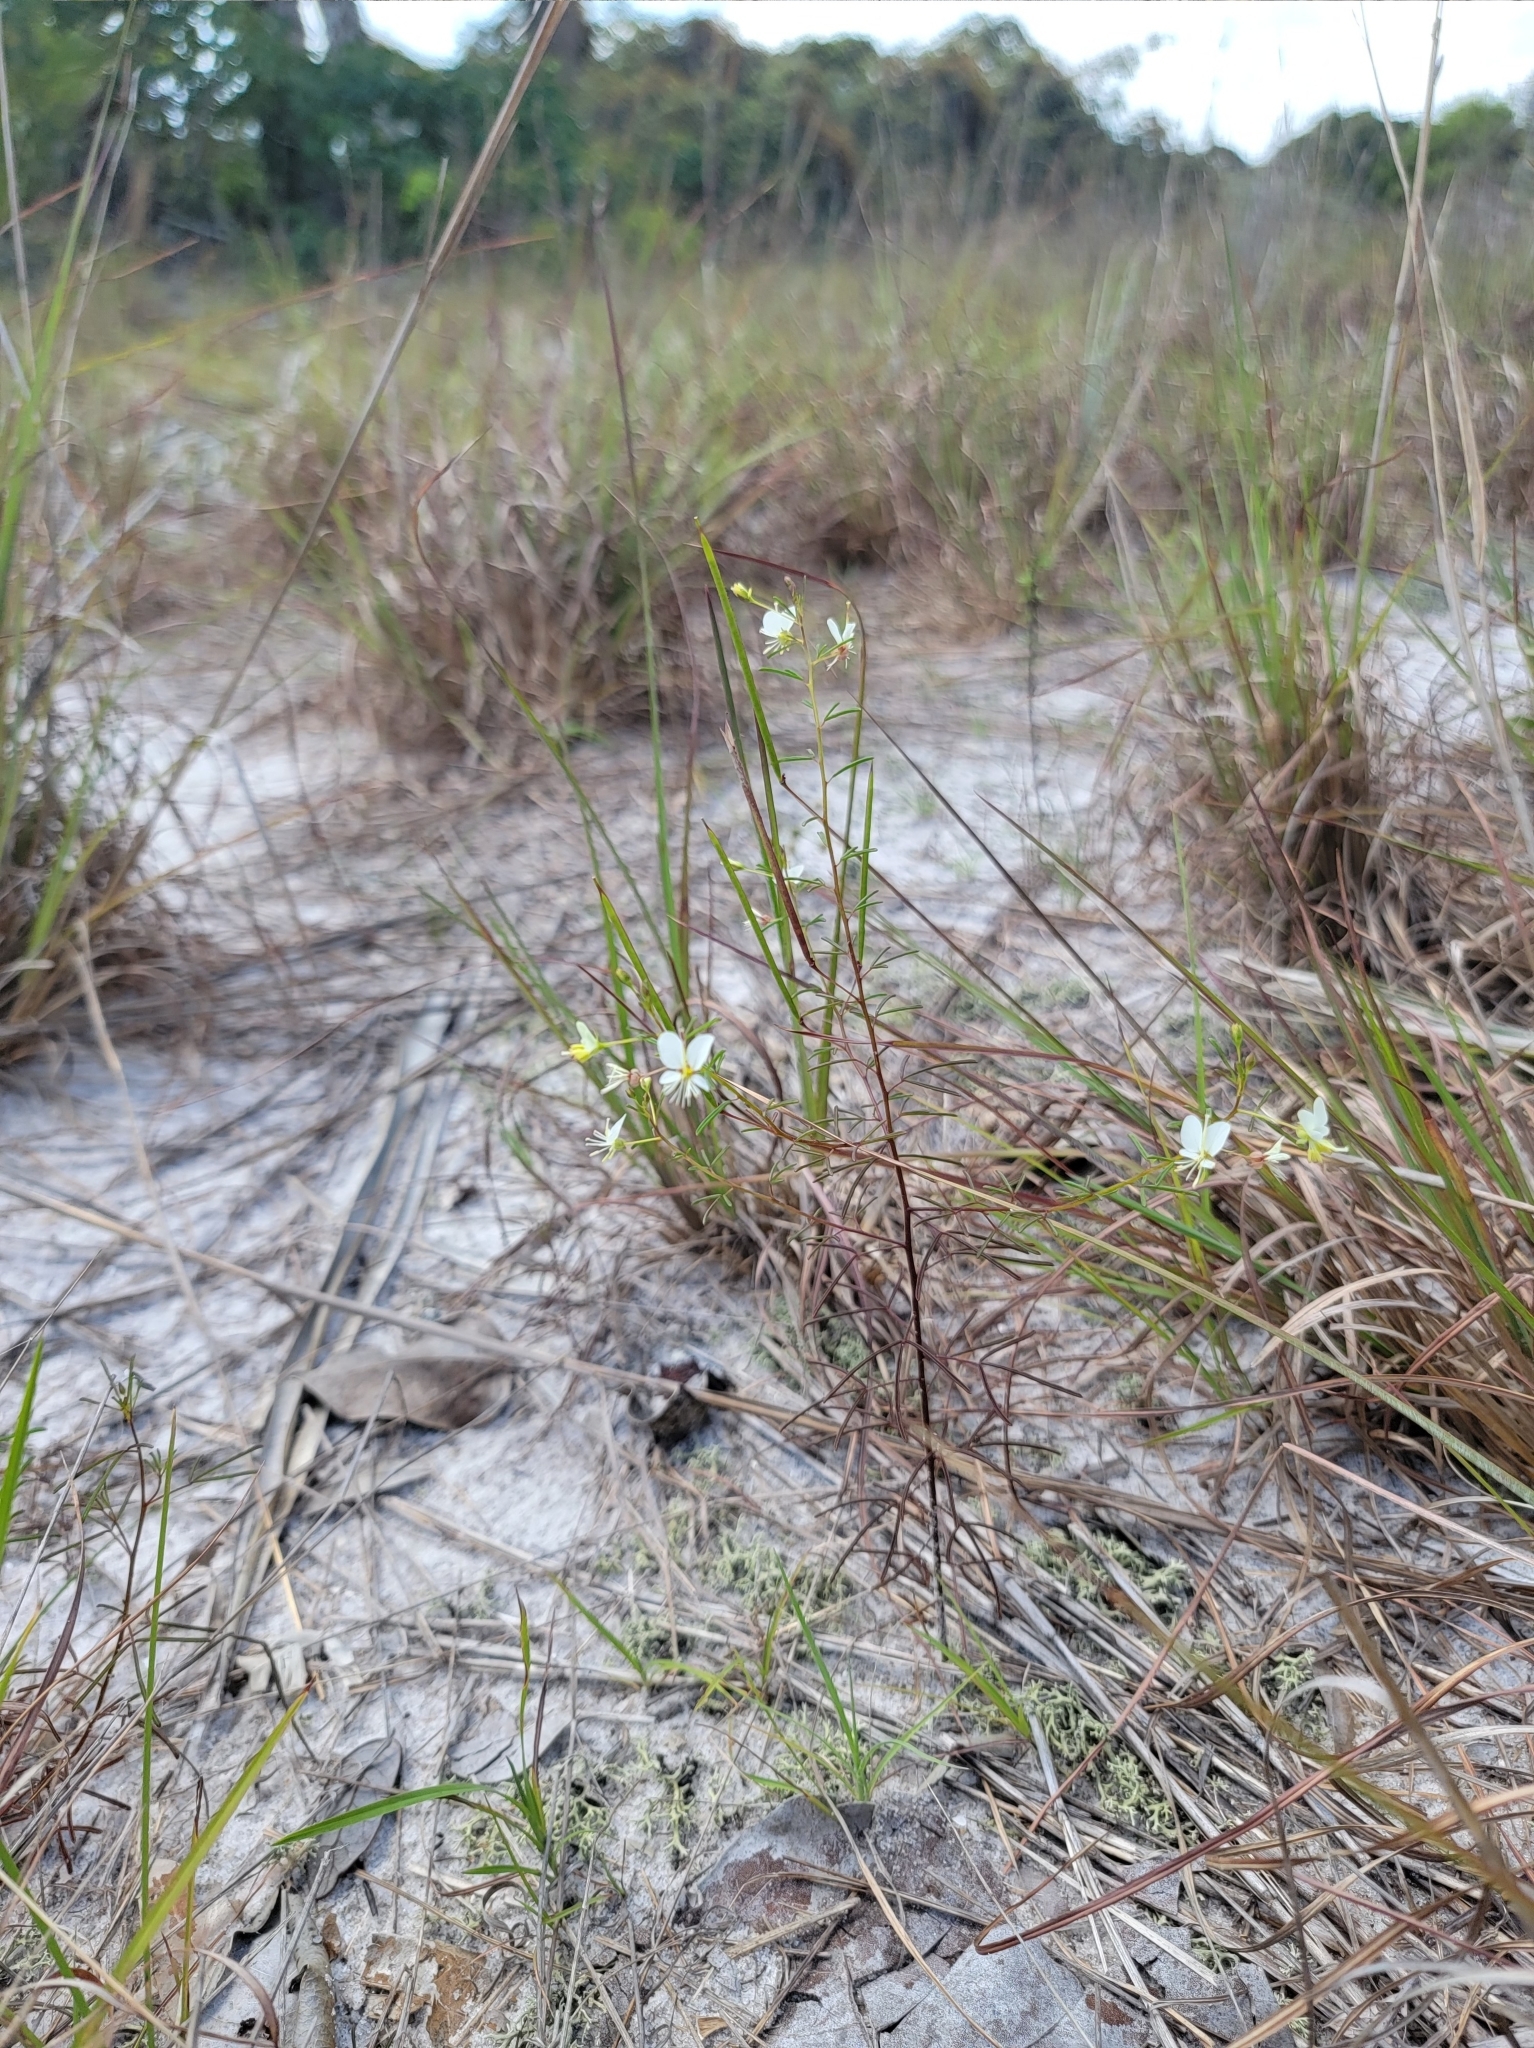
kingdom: Plantae
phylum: Tracheophyta
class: Magnoliopsida
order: Brassicales
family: Cleomaceae
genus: Polanisia
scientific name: Polanisia tenuifolia
